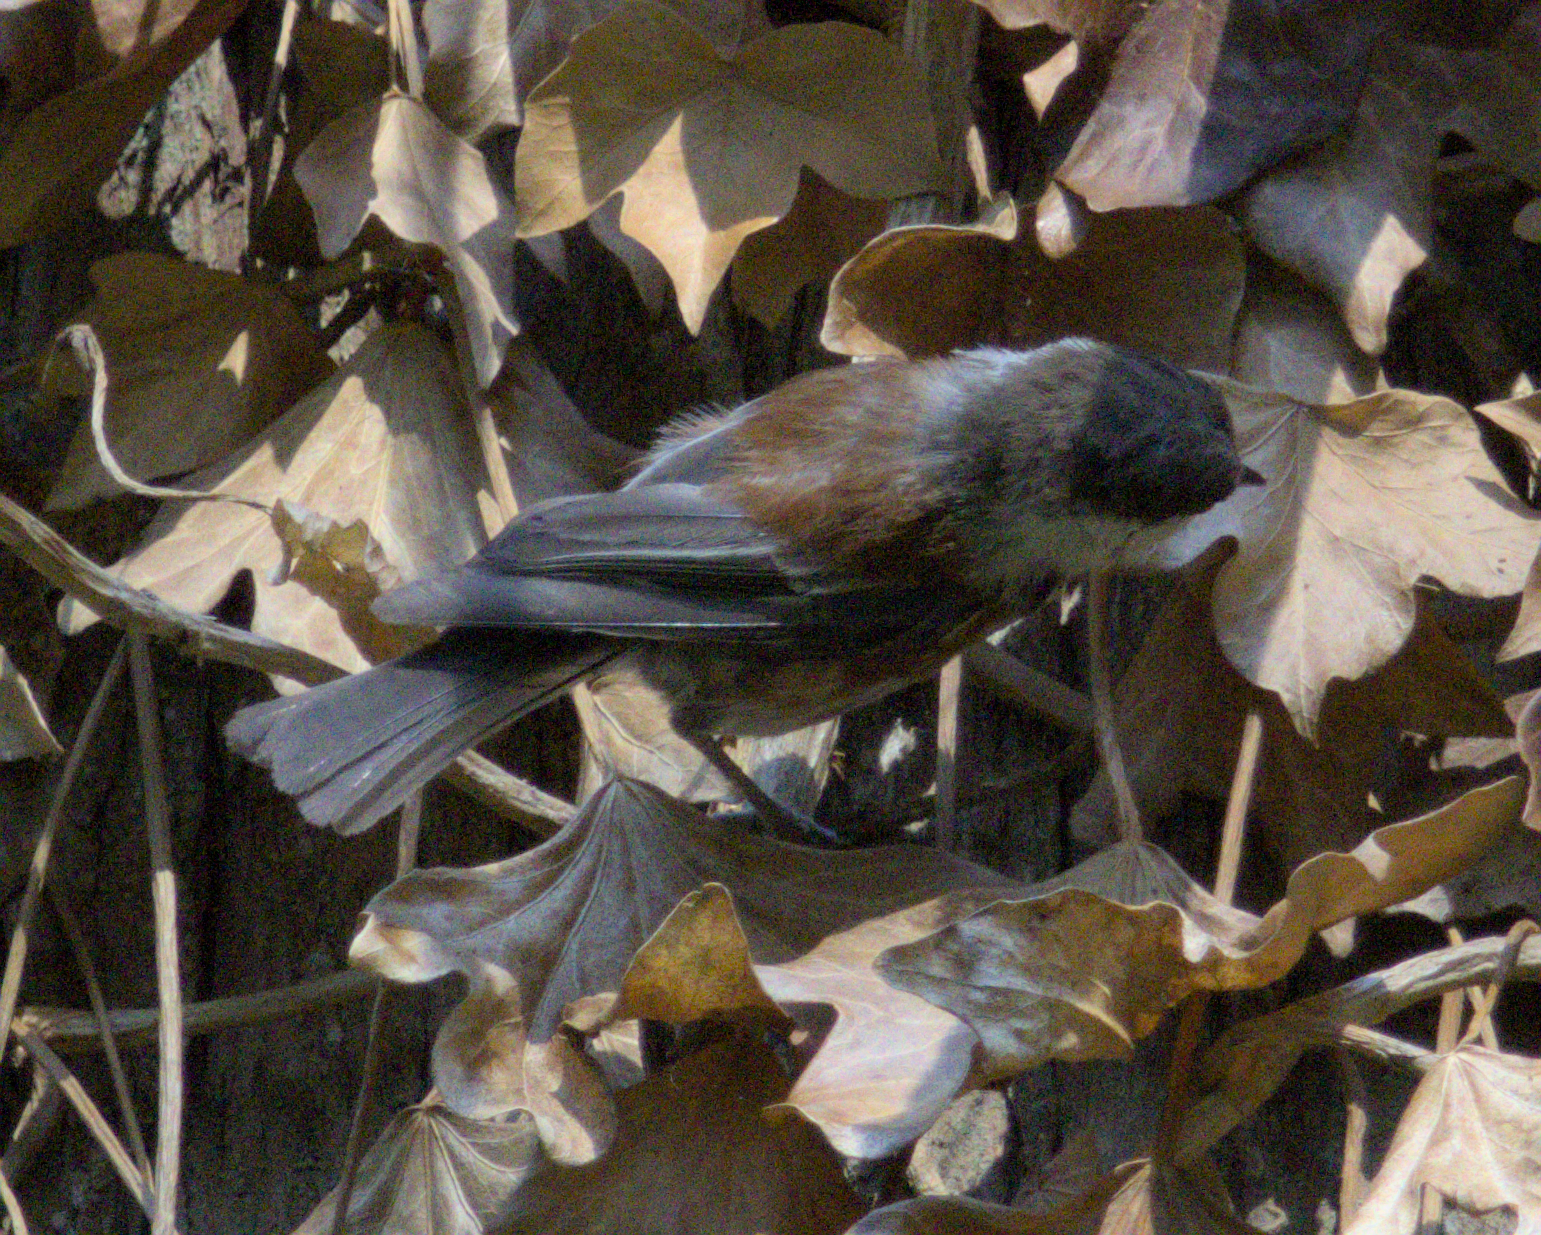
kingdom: Animalia
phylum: Chordata
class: Aves
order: Passeriformes
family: Paridae
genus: Poecile
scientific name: Poecile rufescens
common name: Chestnut-backed chickadee
